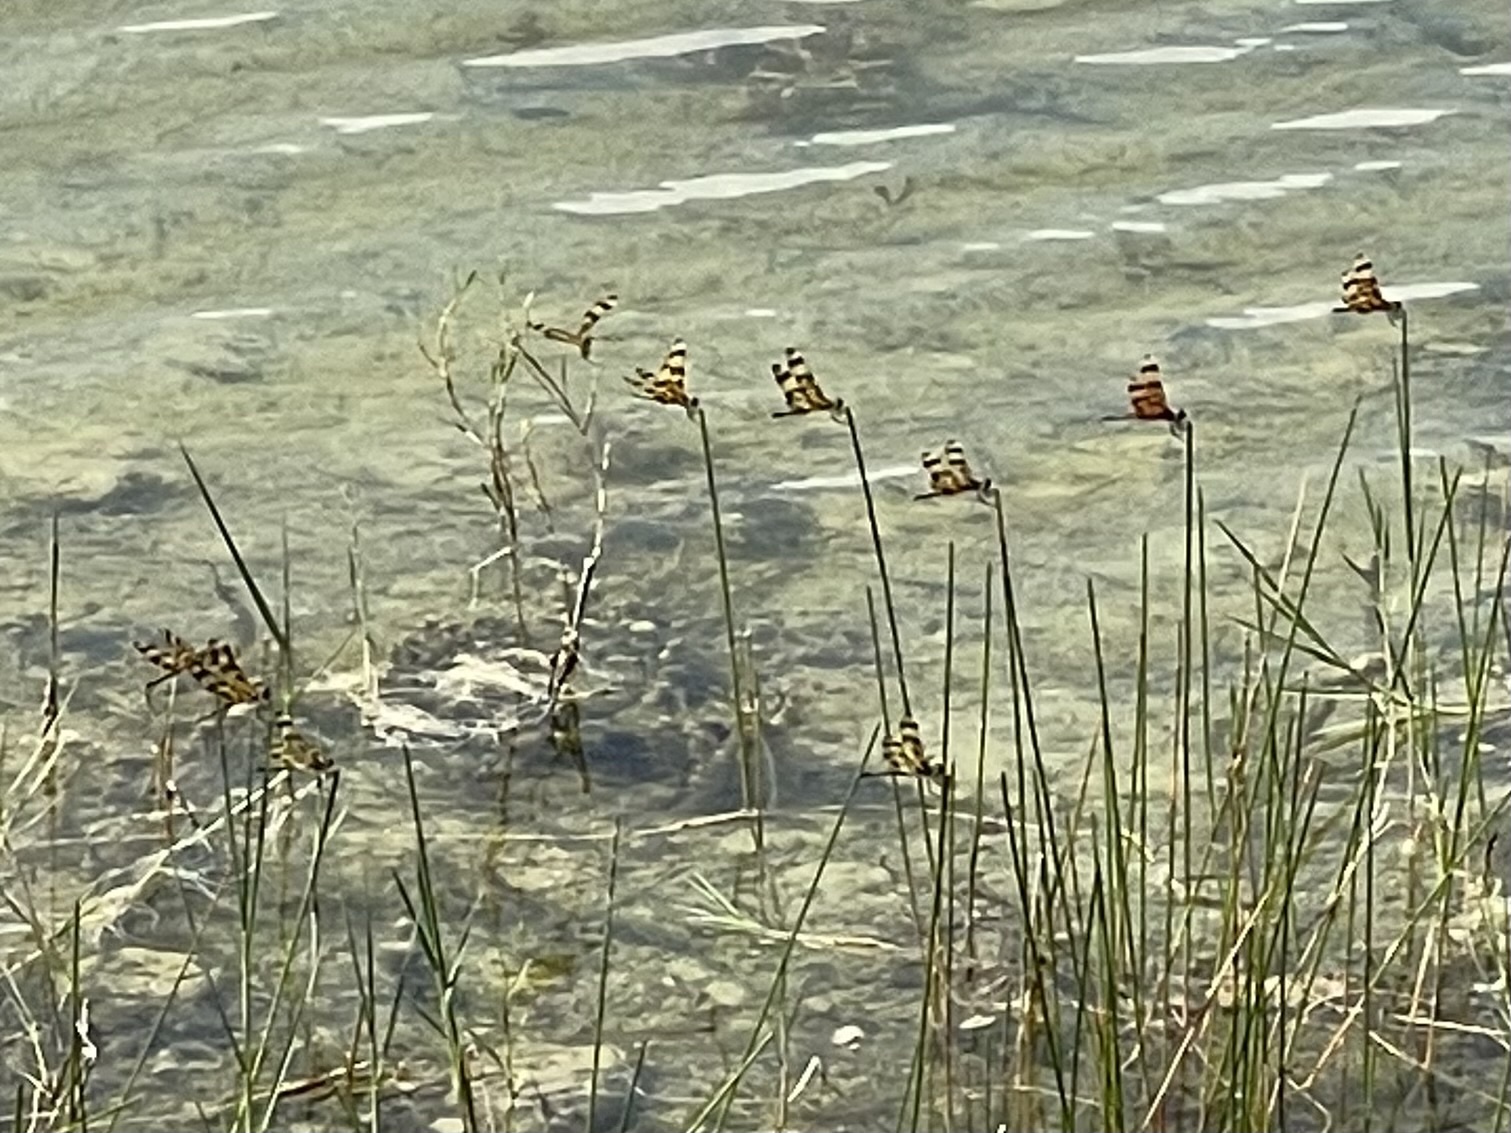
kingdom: Animalia
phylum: Arthropoda
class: Insecta
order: Odonata
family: Libellulidae
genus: Celithemis
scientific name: Celithemis eponina
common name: Halloween pennant
